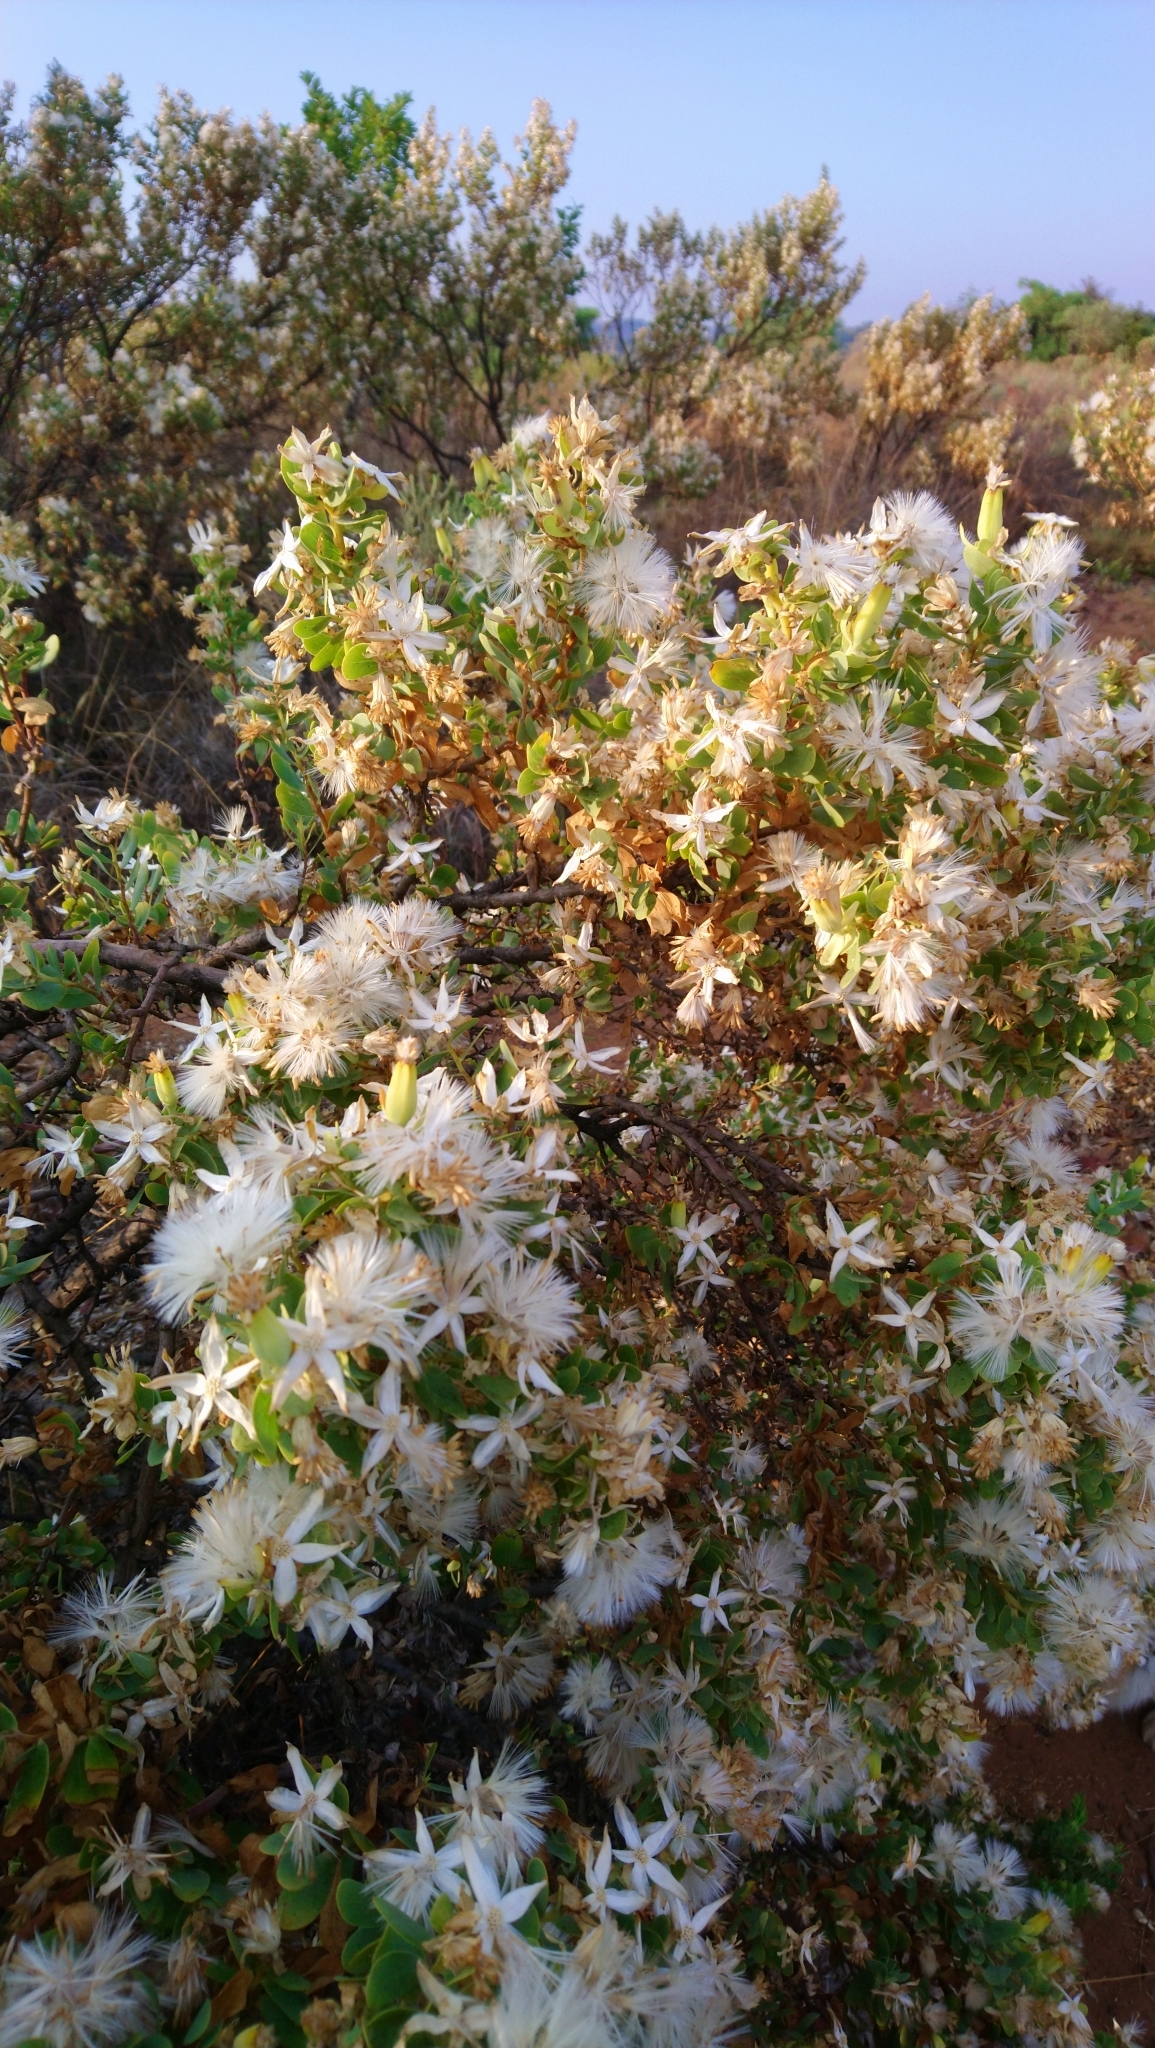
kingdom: Plantae
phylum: Tracheophyta
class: Magnoliopsida
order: Asterales
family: Asteraceae
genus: Lopholaena
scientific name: Lopholaena coriifolia
